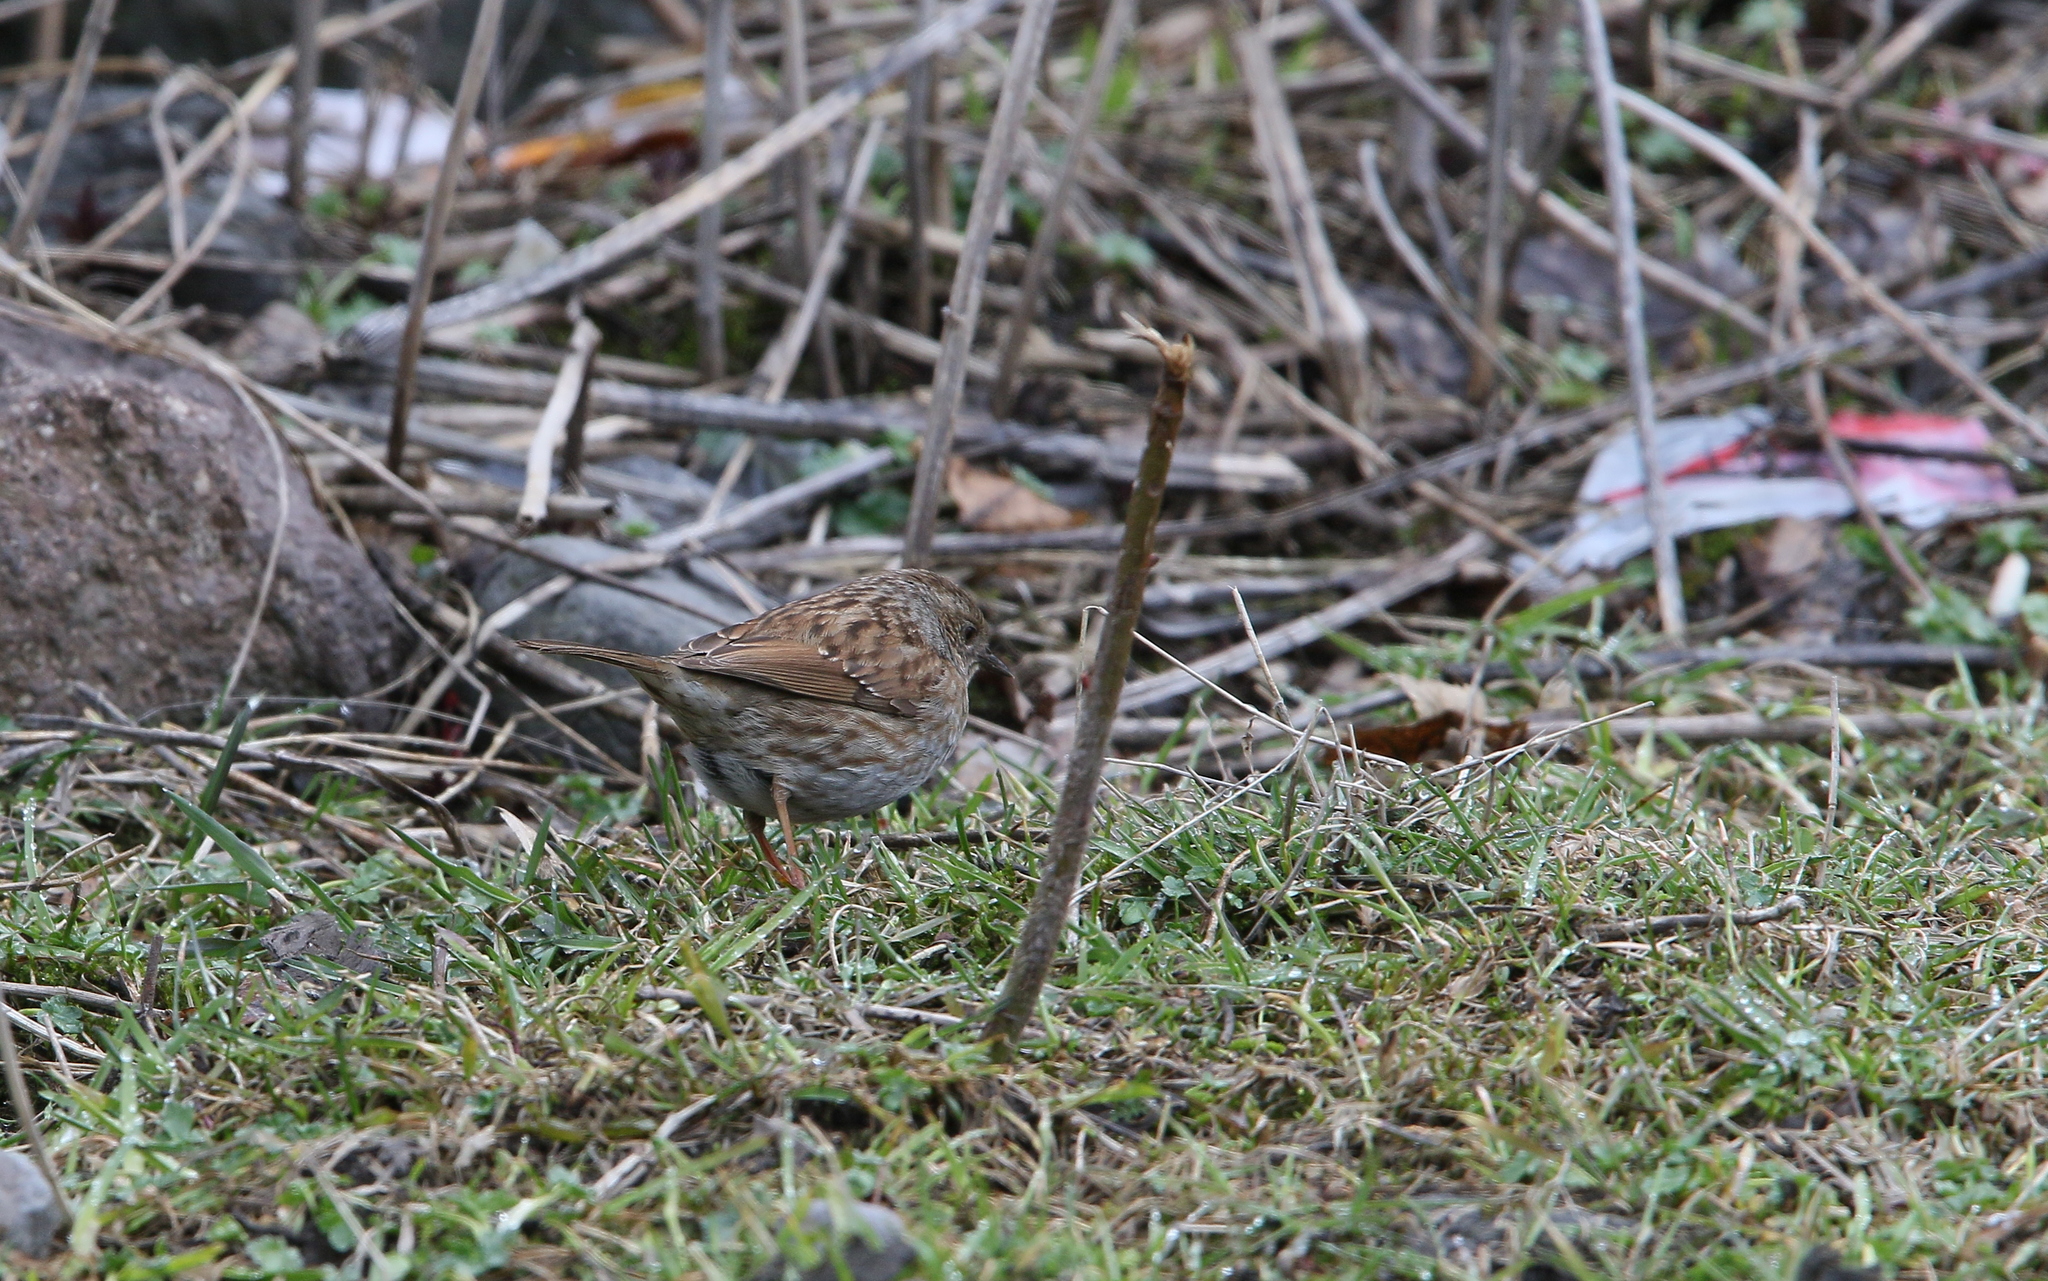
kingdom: Animalia
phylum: Chordata
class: Aves
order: Passeriformes
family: Prunellidae
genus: Prunella
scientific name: Prunella modularis
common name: Dunnock
